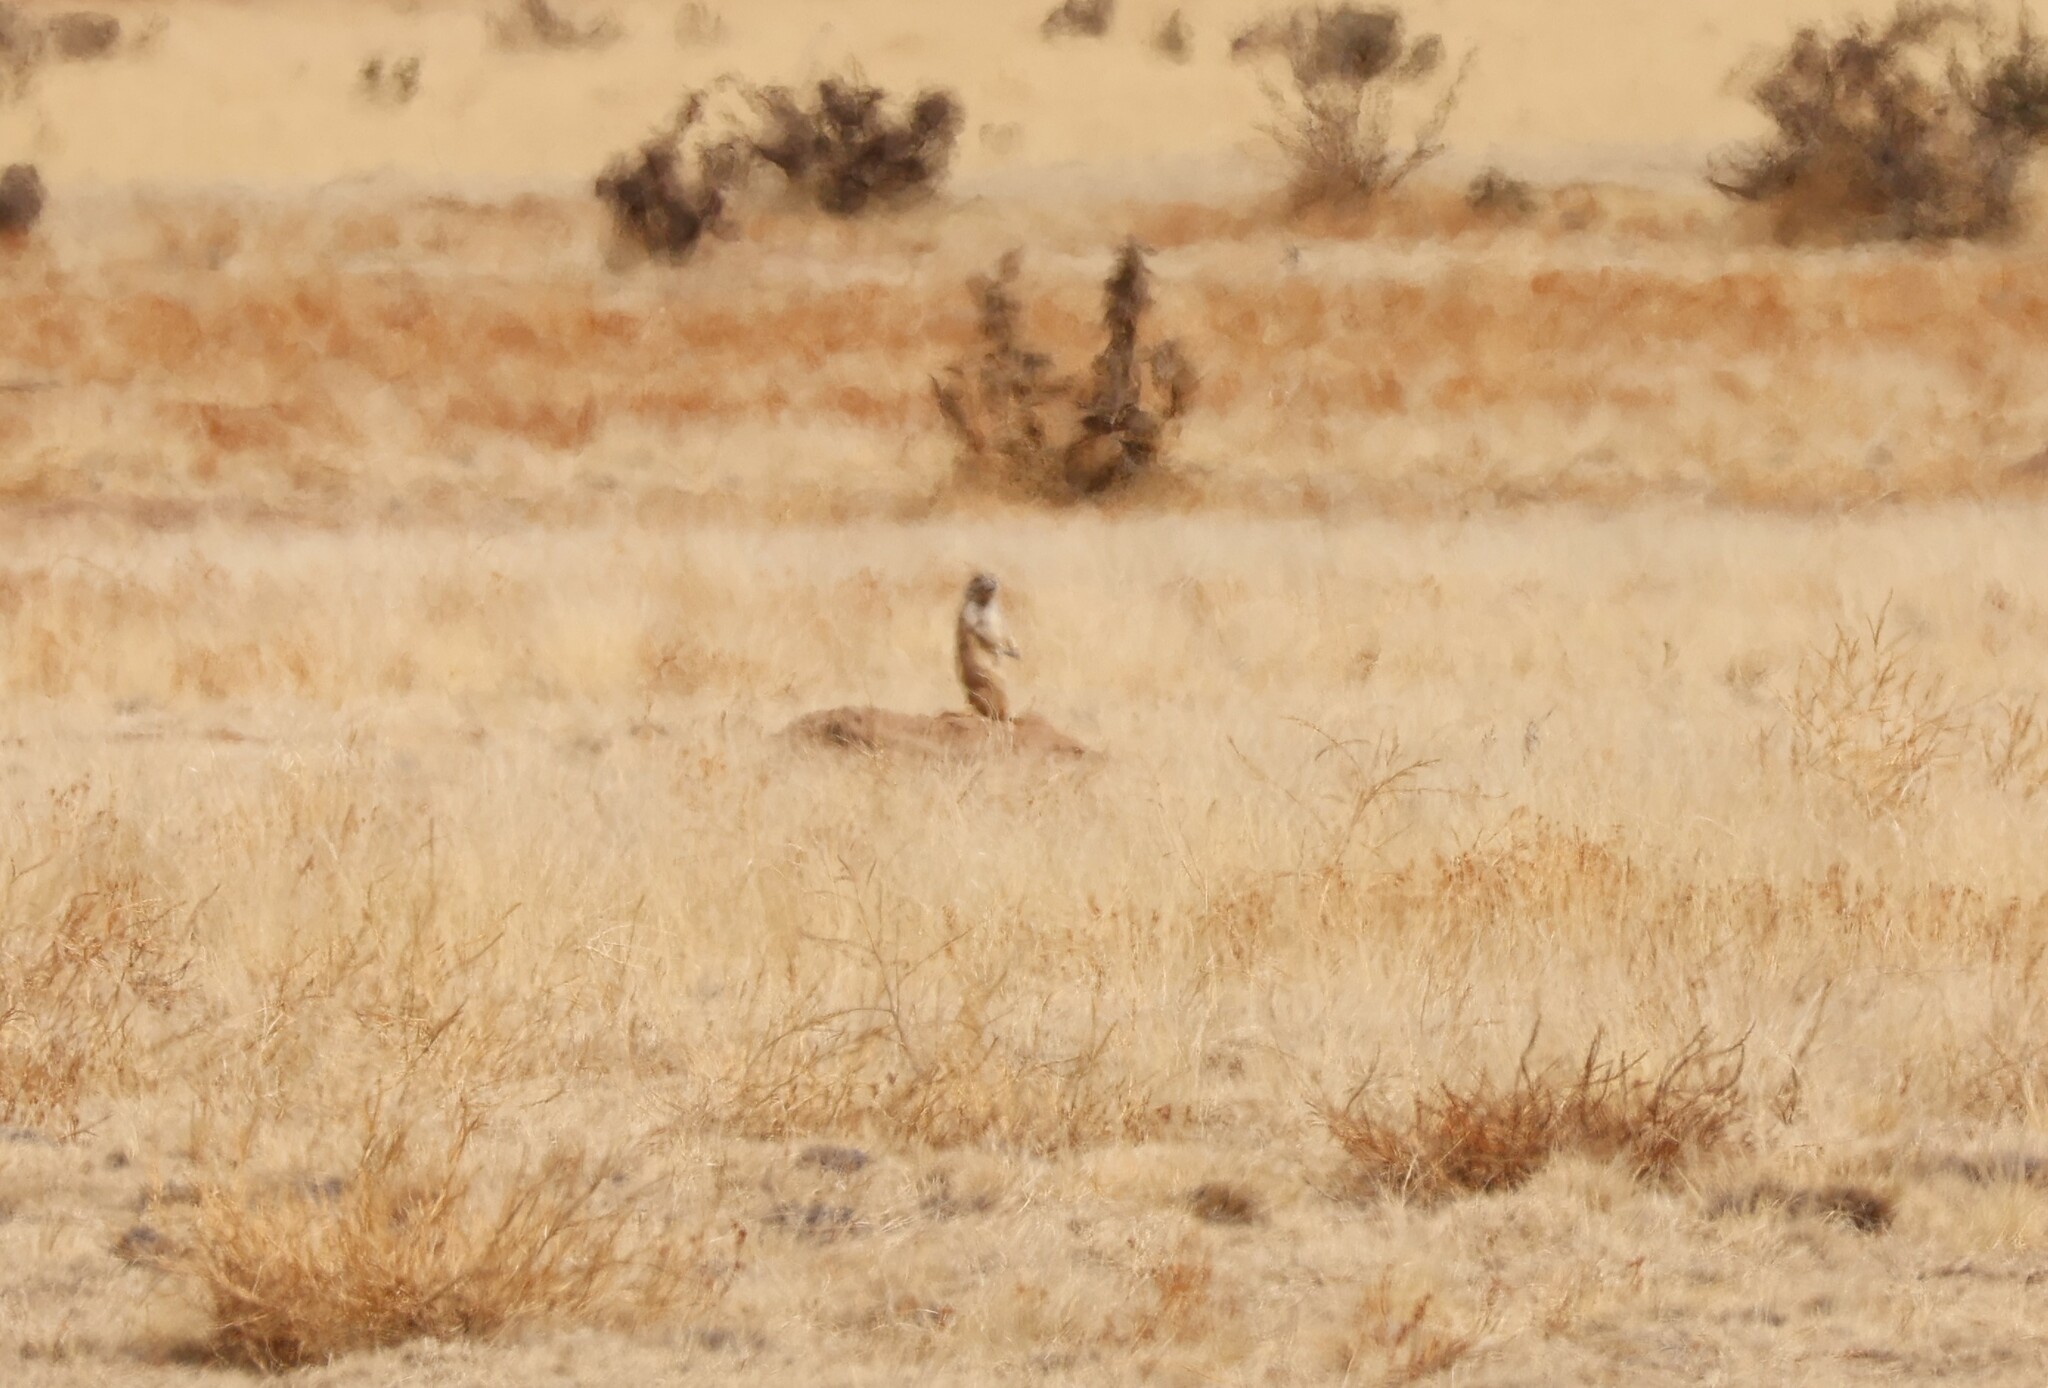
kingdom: Animalia
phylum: Chordata
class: Mammalia
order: Rodentia
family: Sciuridae
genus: Cynomys
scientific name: Cynomys ludovicianus
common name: Black-tailed prairie dog
